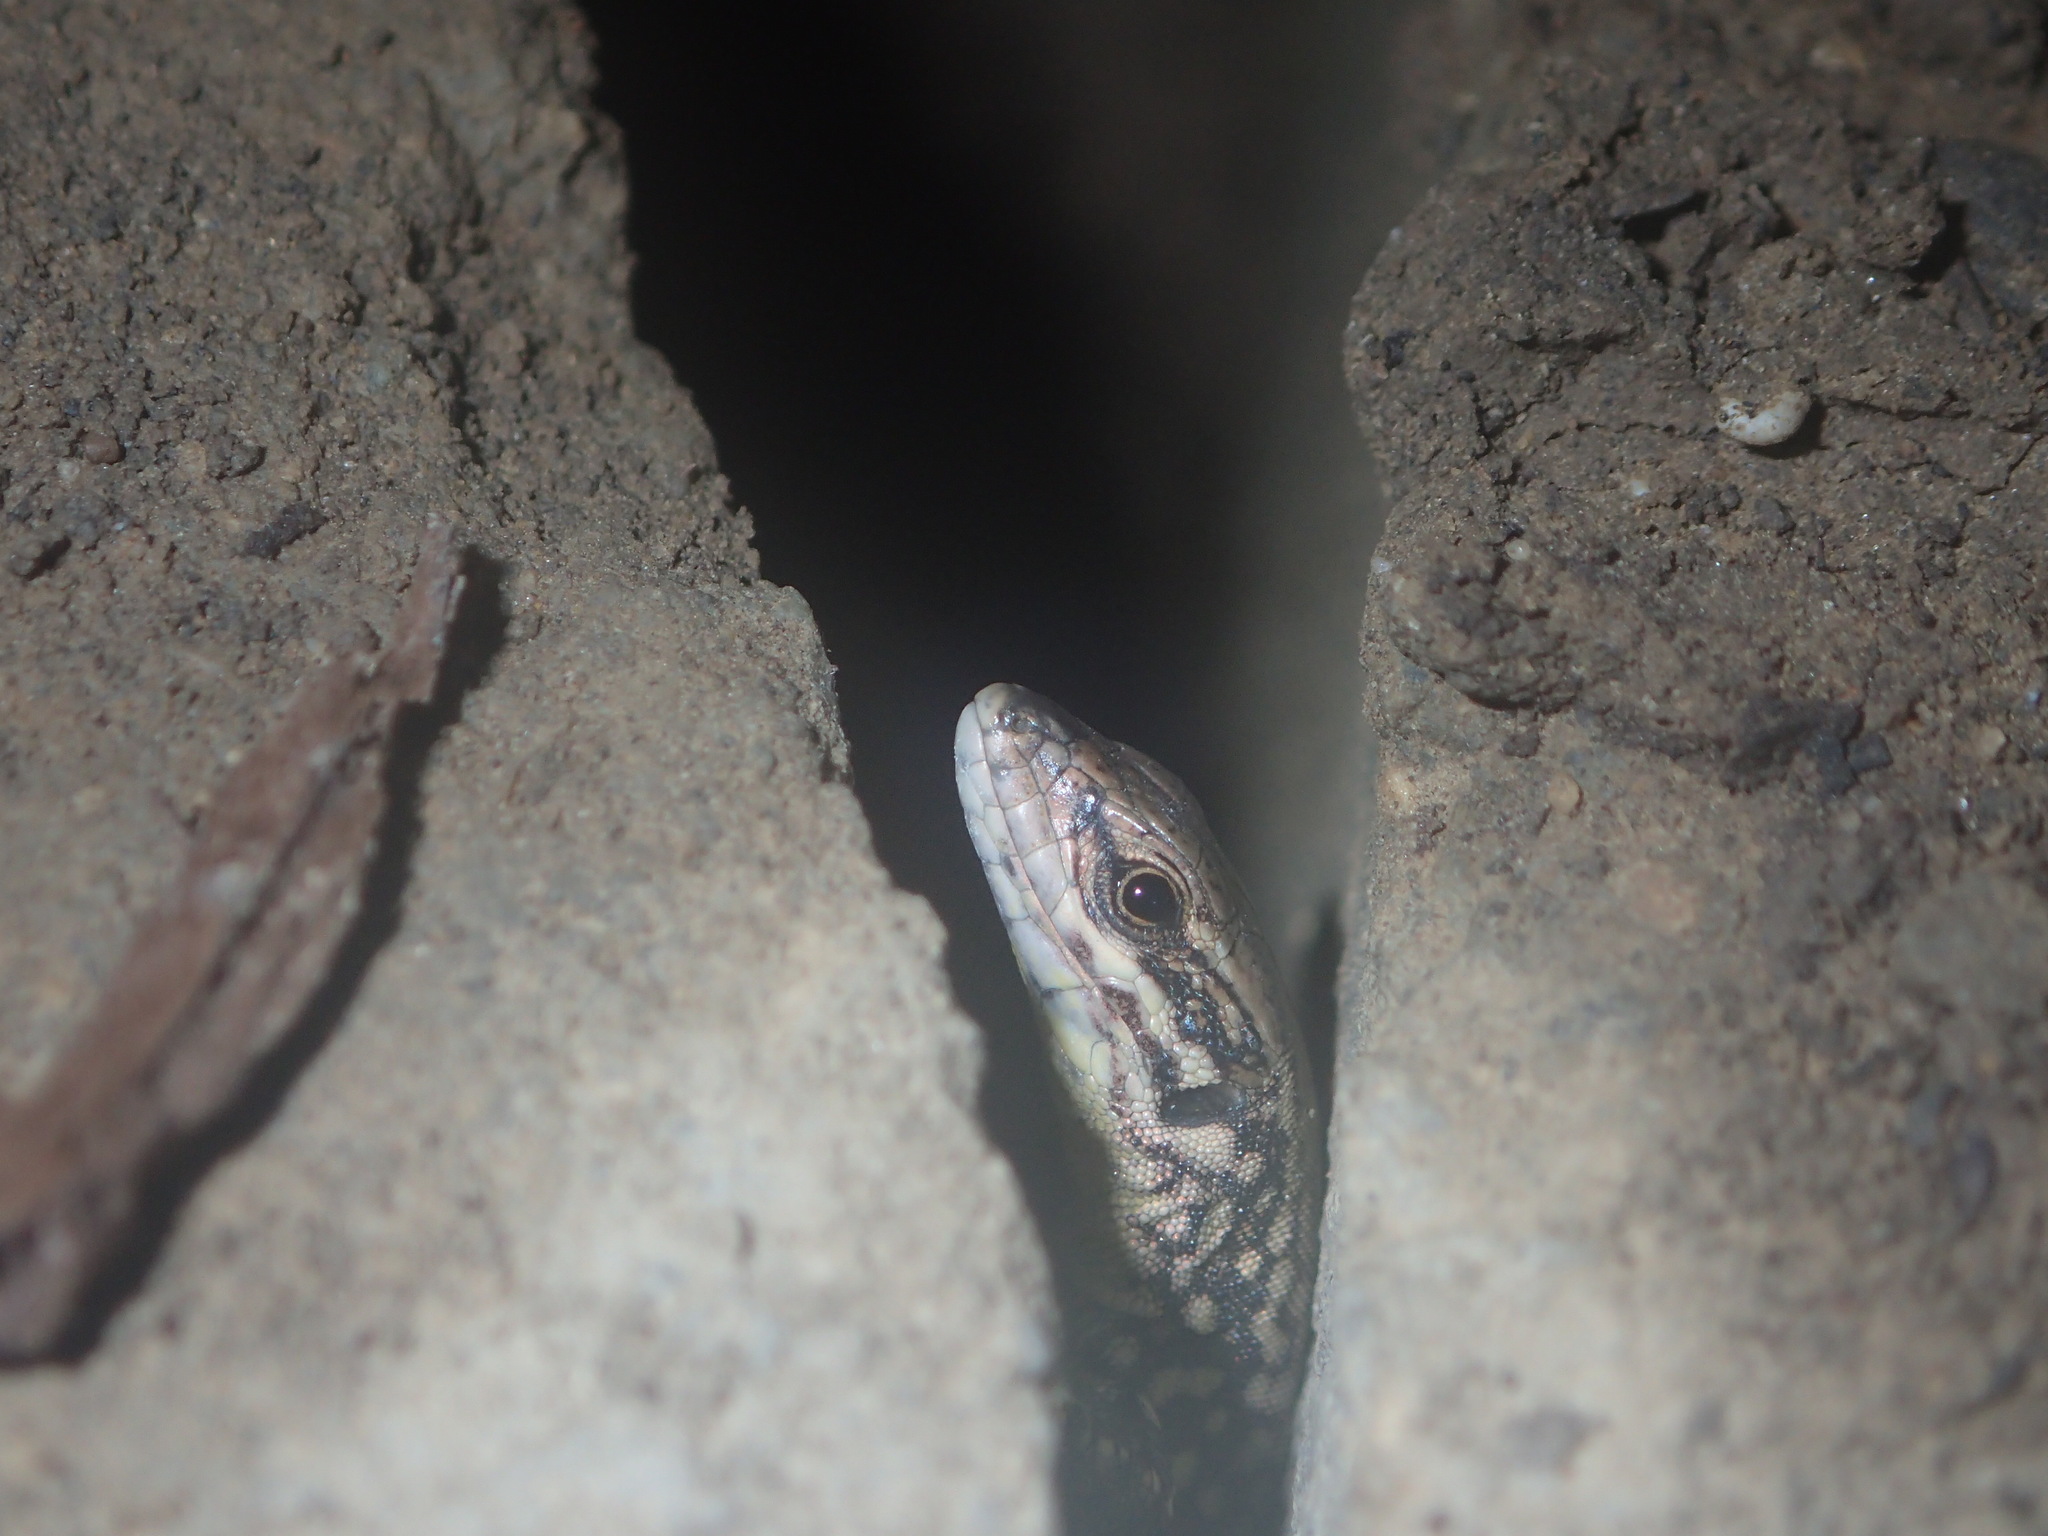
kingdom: Animalia
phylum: Chordata
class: Squamata
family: Lacertidae
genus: Podarcis
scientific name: Podarcis muralis
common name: Common wall lizard
